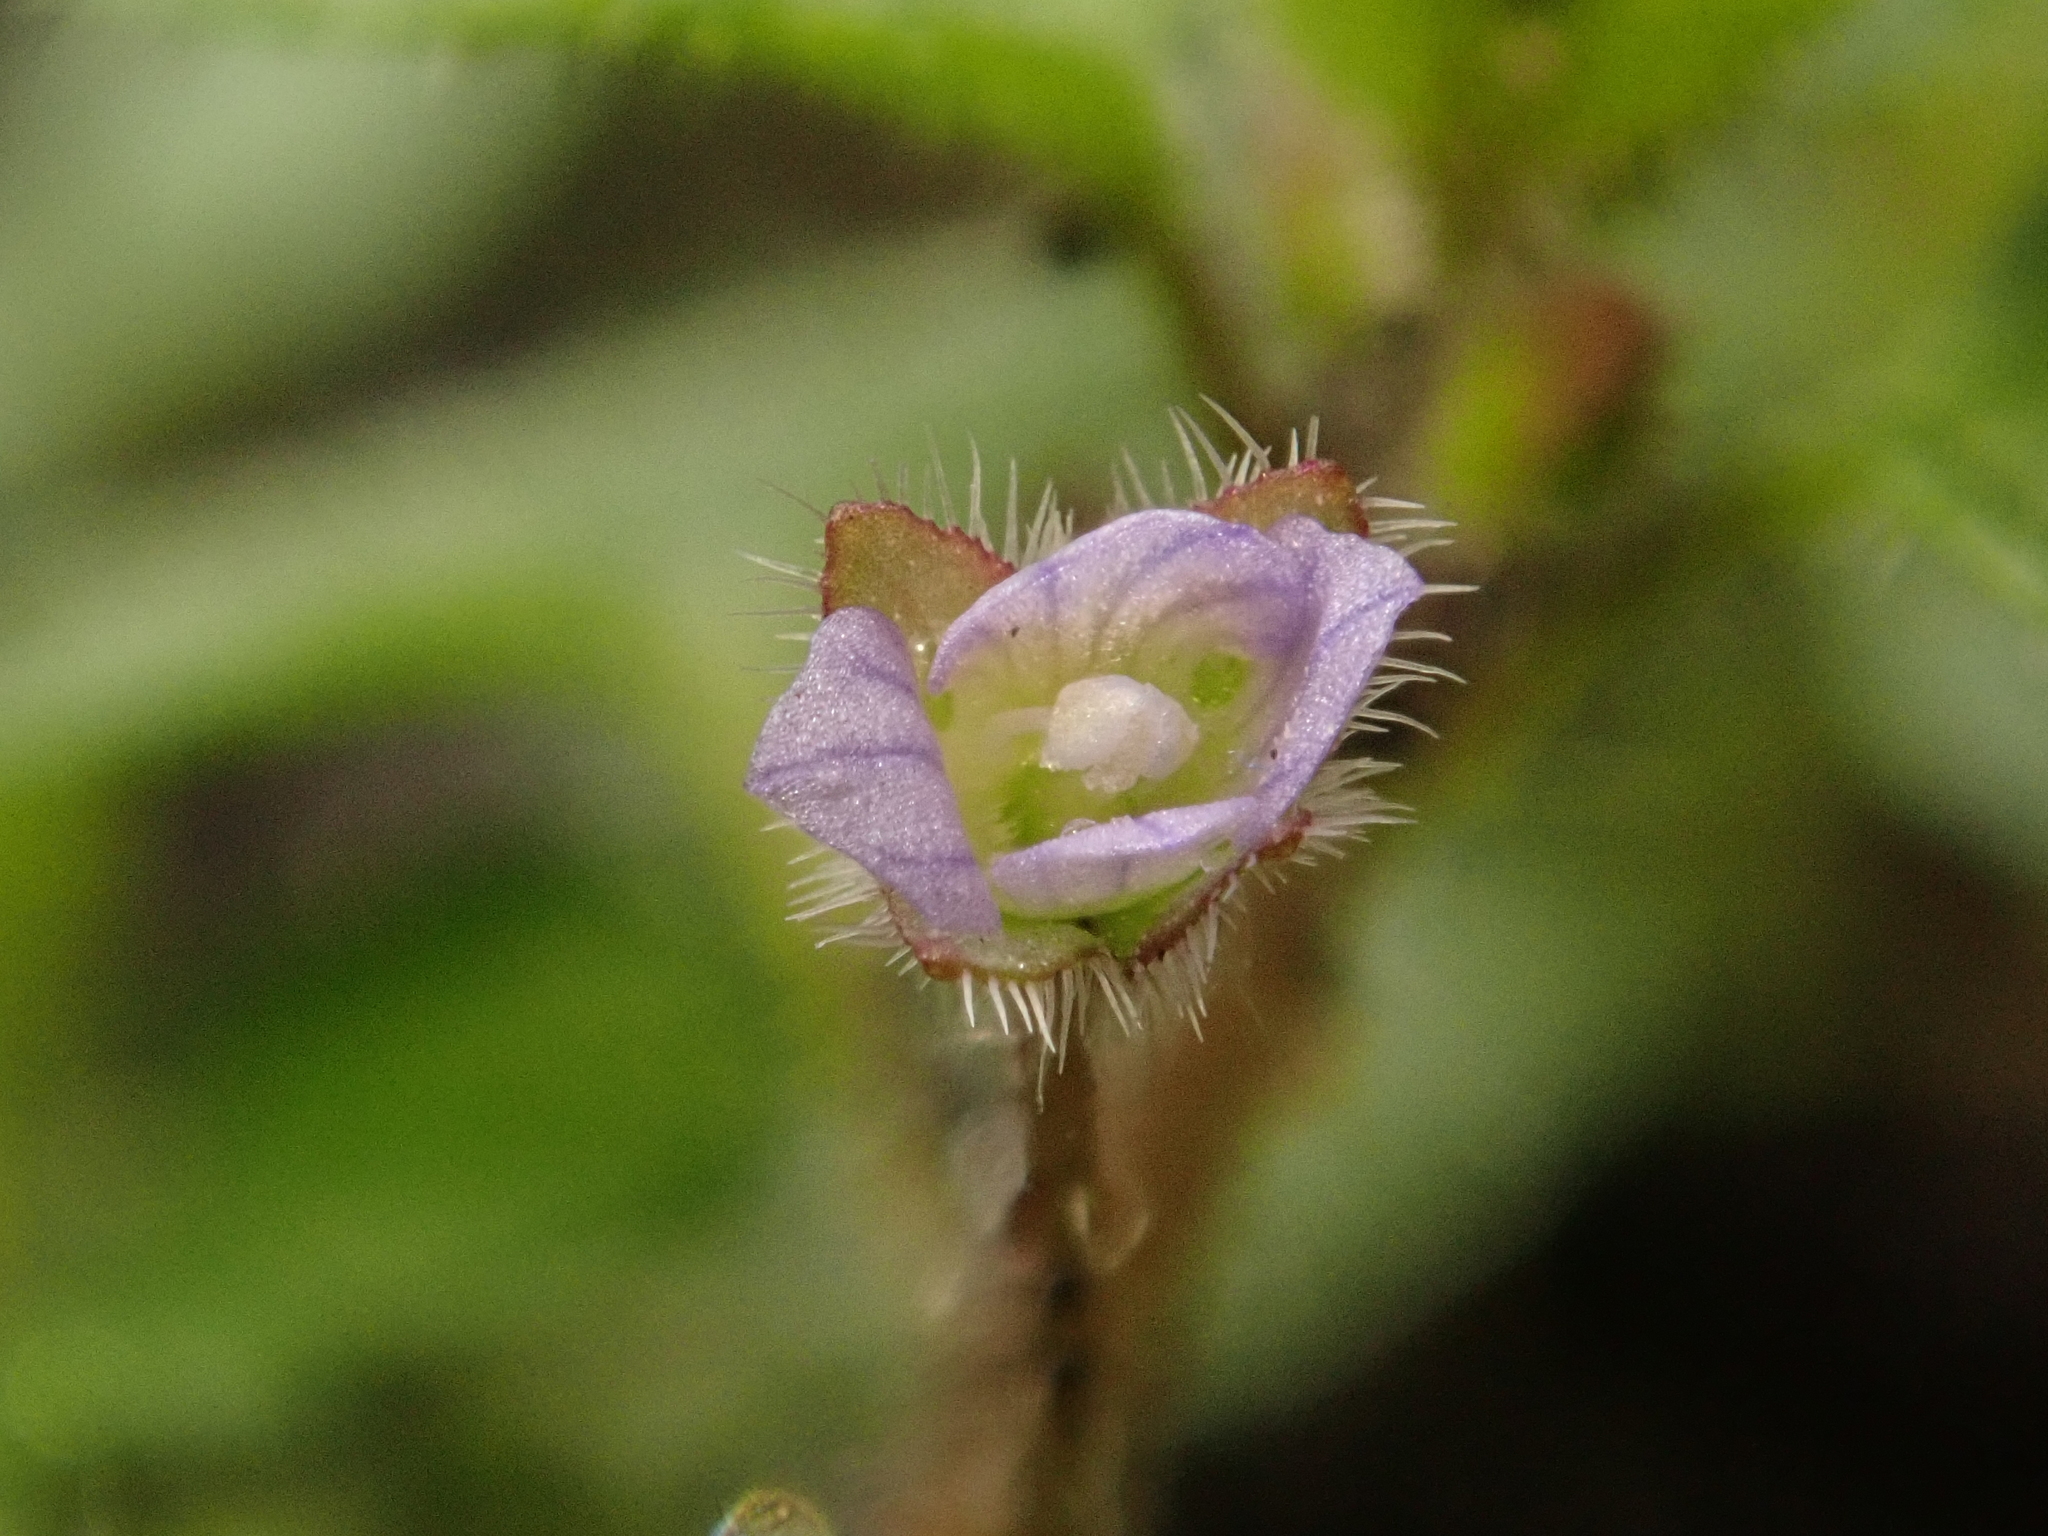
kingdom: Plantae
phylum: Tracheophyta
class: Magnoliopsida
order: Lamiales
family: Plantaginaceae
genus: Veronica
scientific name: Veronica sublobata
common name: False ivy-leaved speedwell
